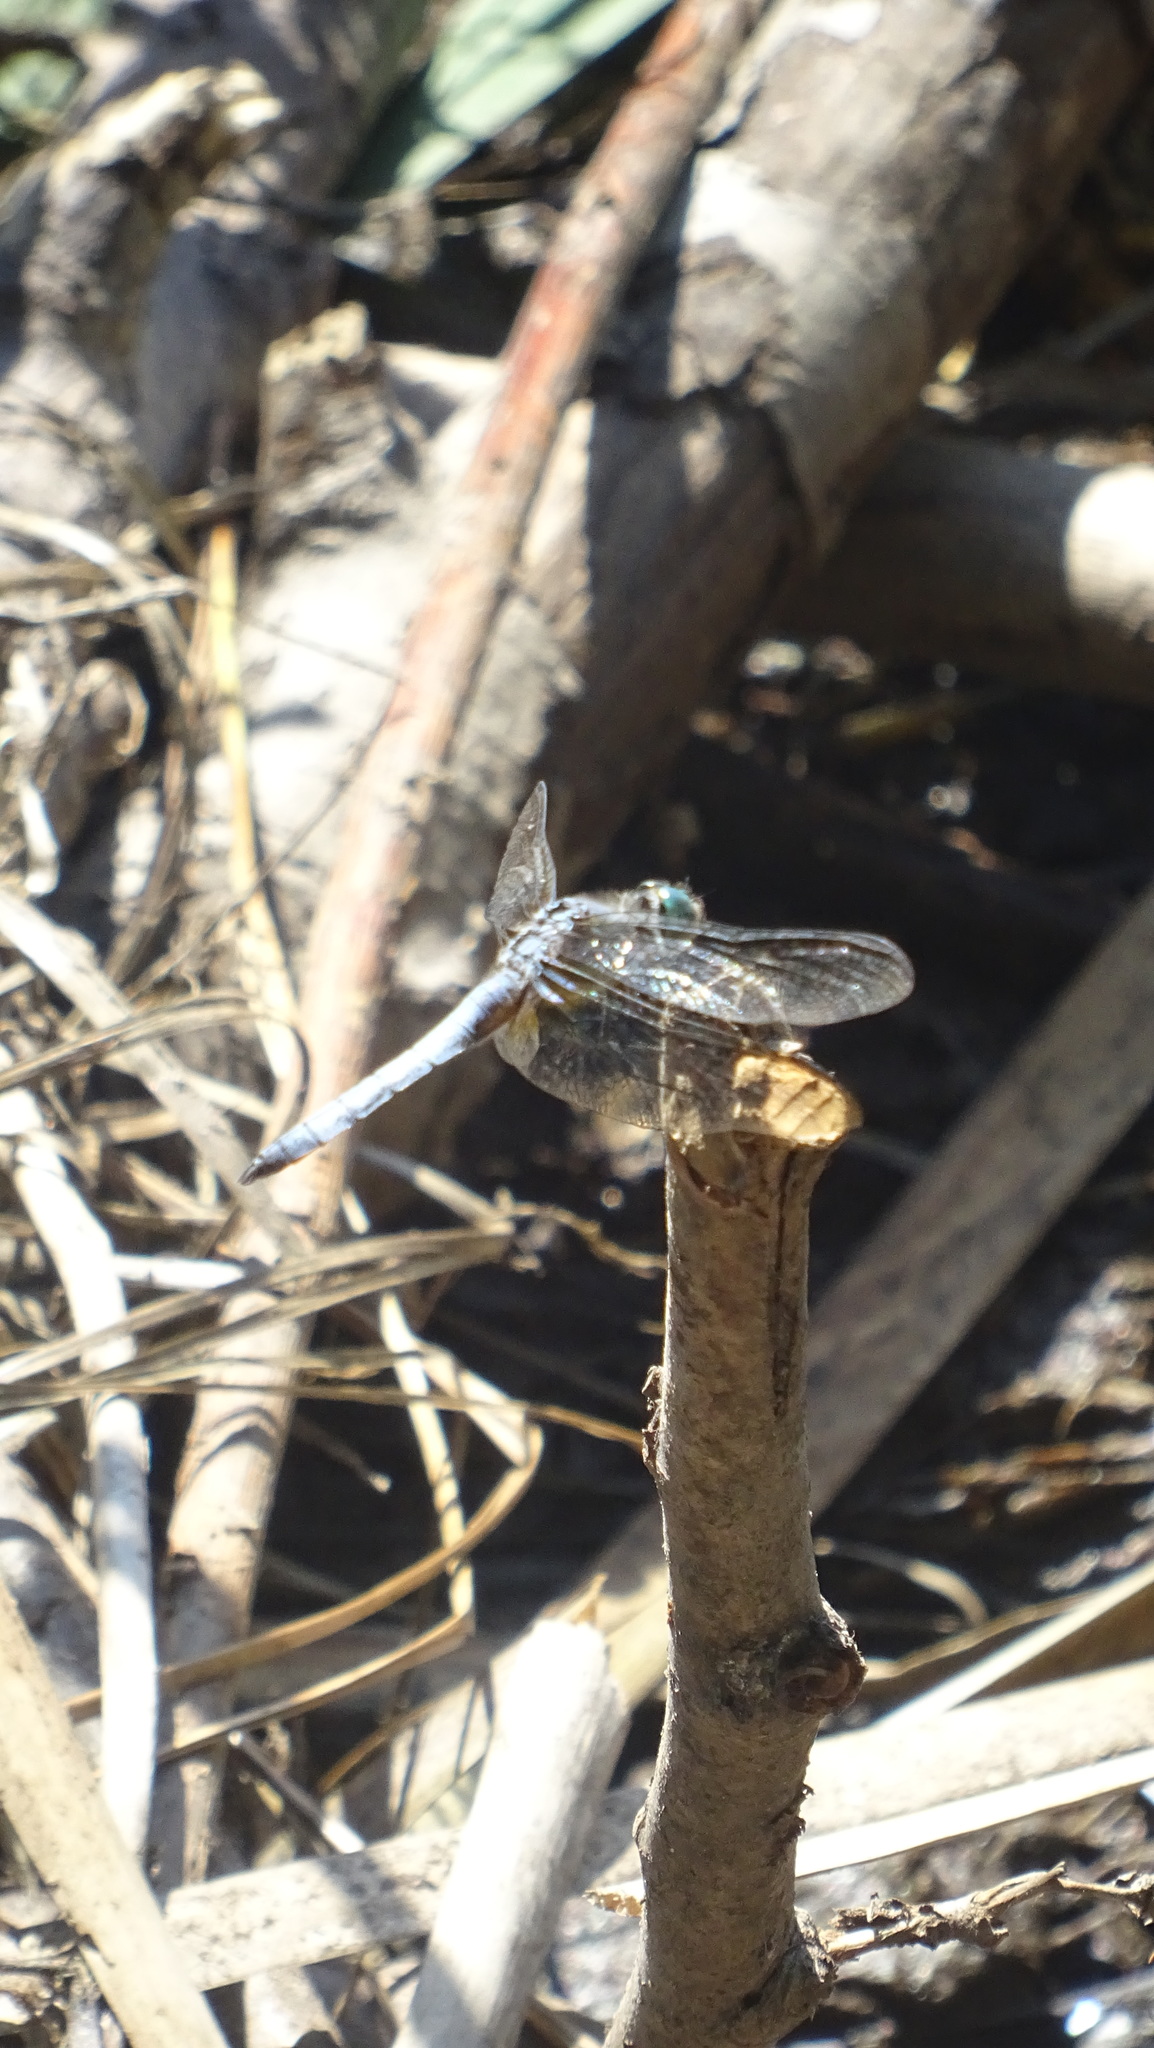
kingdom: Animalia
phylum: Arthropoda
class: Insecta
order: Odonata
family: Libellulidae
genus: Pachydiplax
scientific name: Pachydiplax longipennis
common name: Blue dasher
